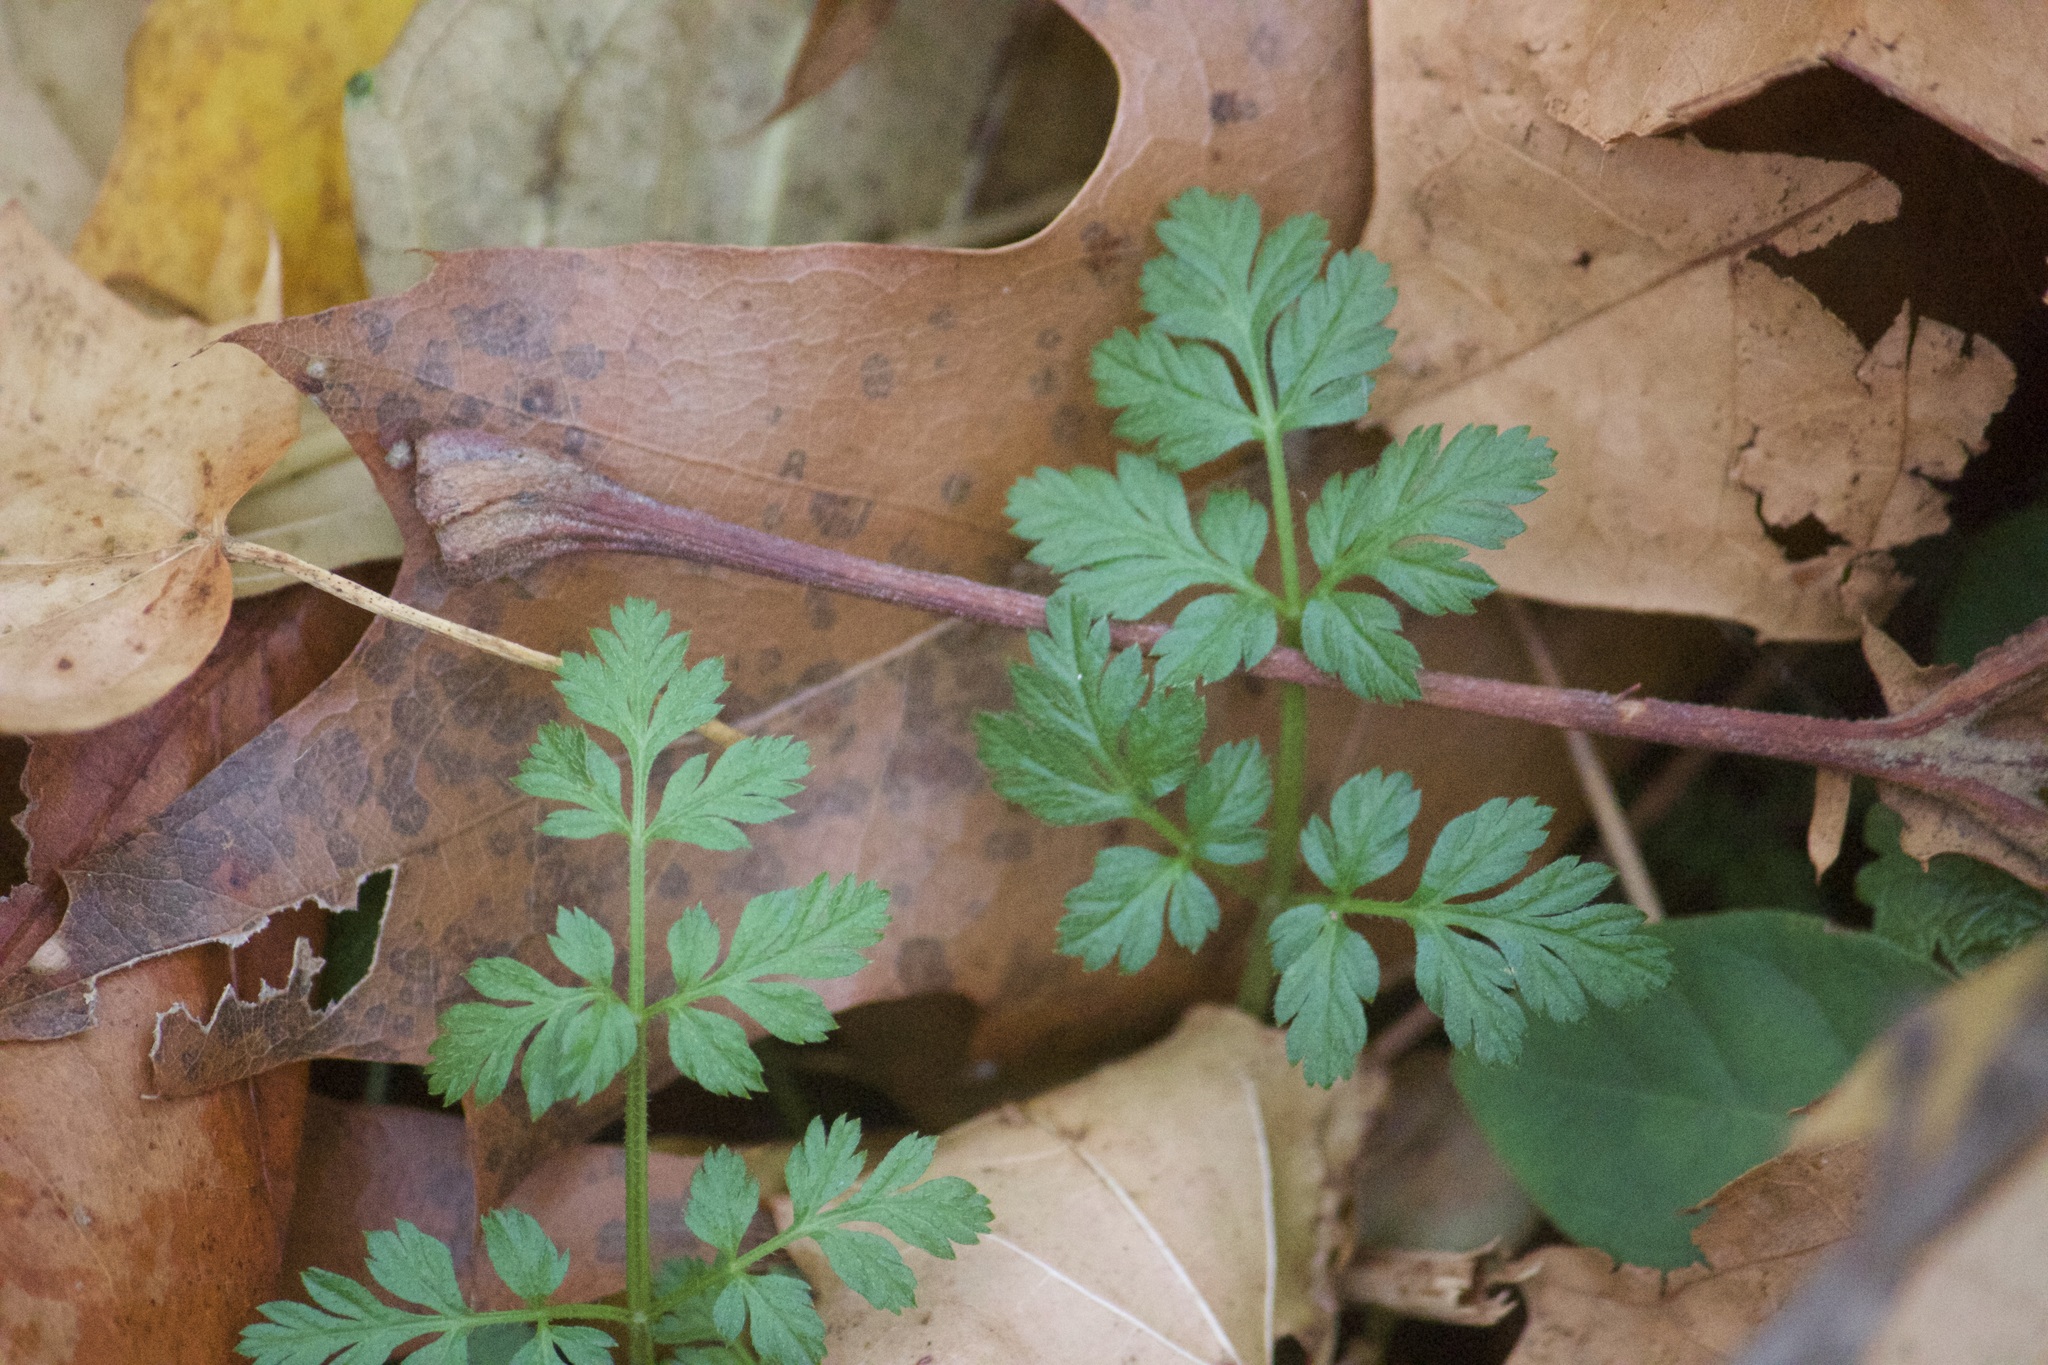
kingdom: Plantae
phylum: Tracheophyta
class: Magnoliopsida
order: Geraniales
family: Geraniaceae
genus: Geranium
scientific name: Geranium robertianum
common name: Herb-robert
